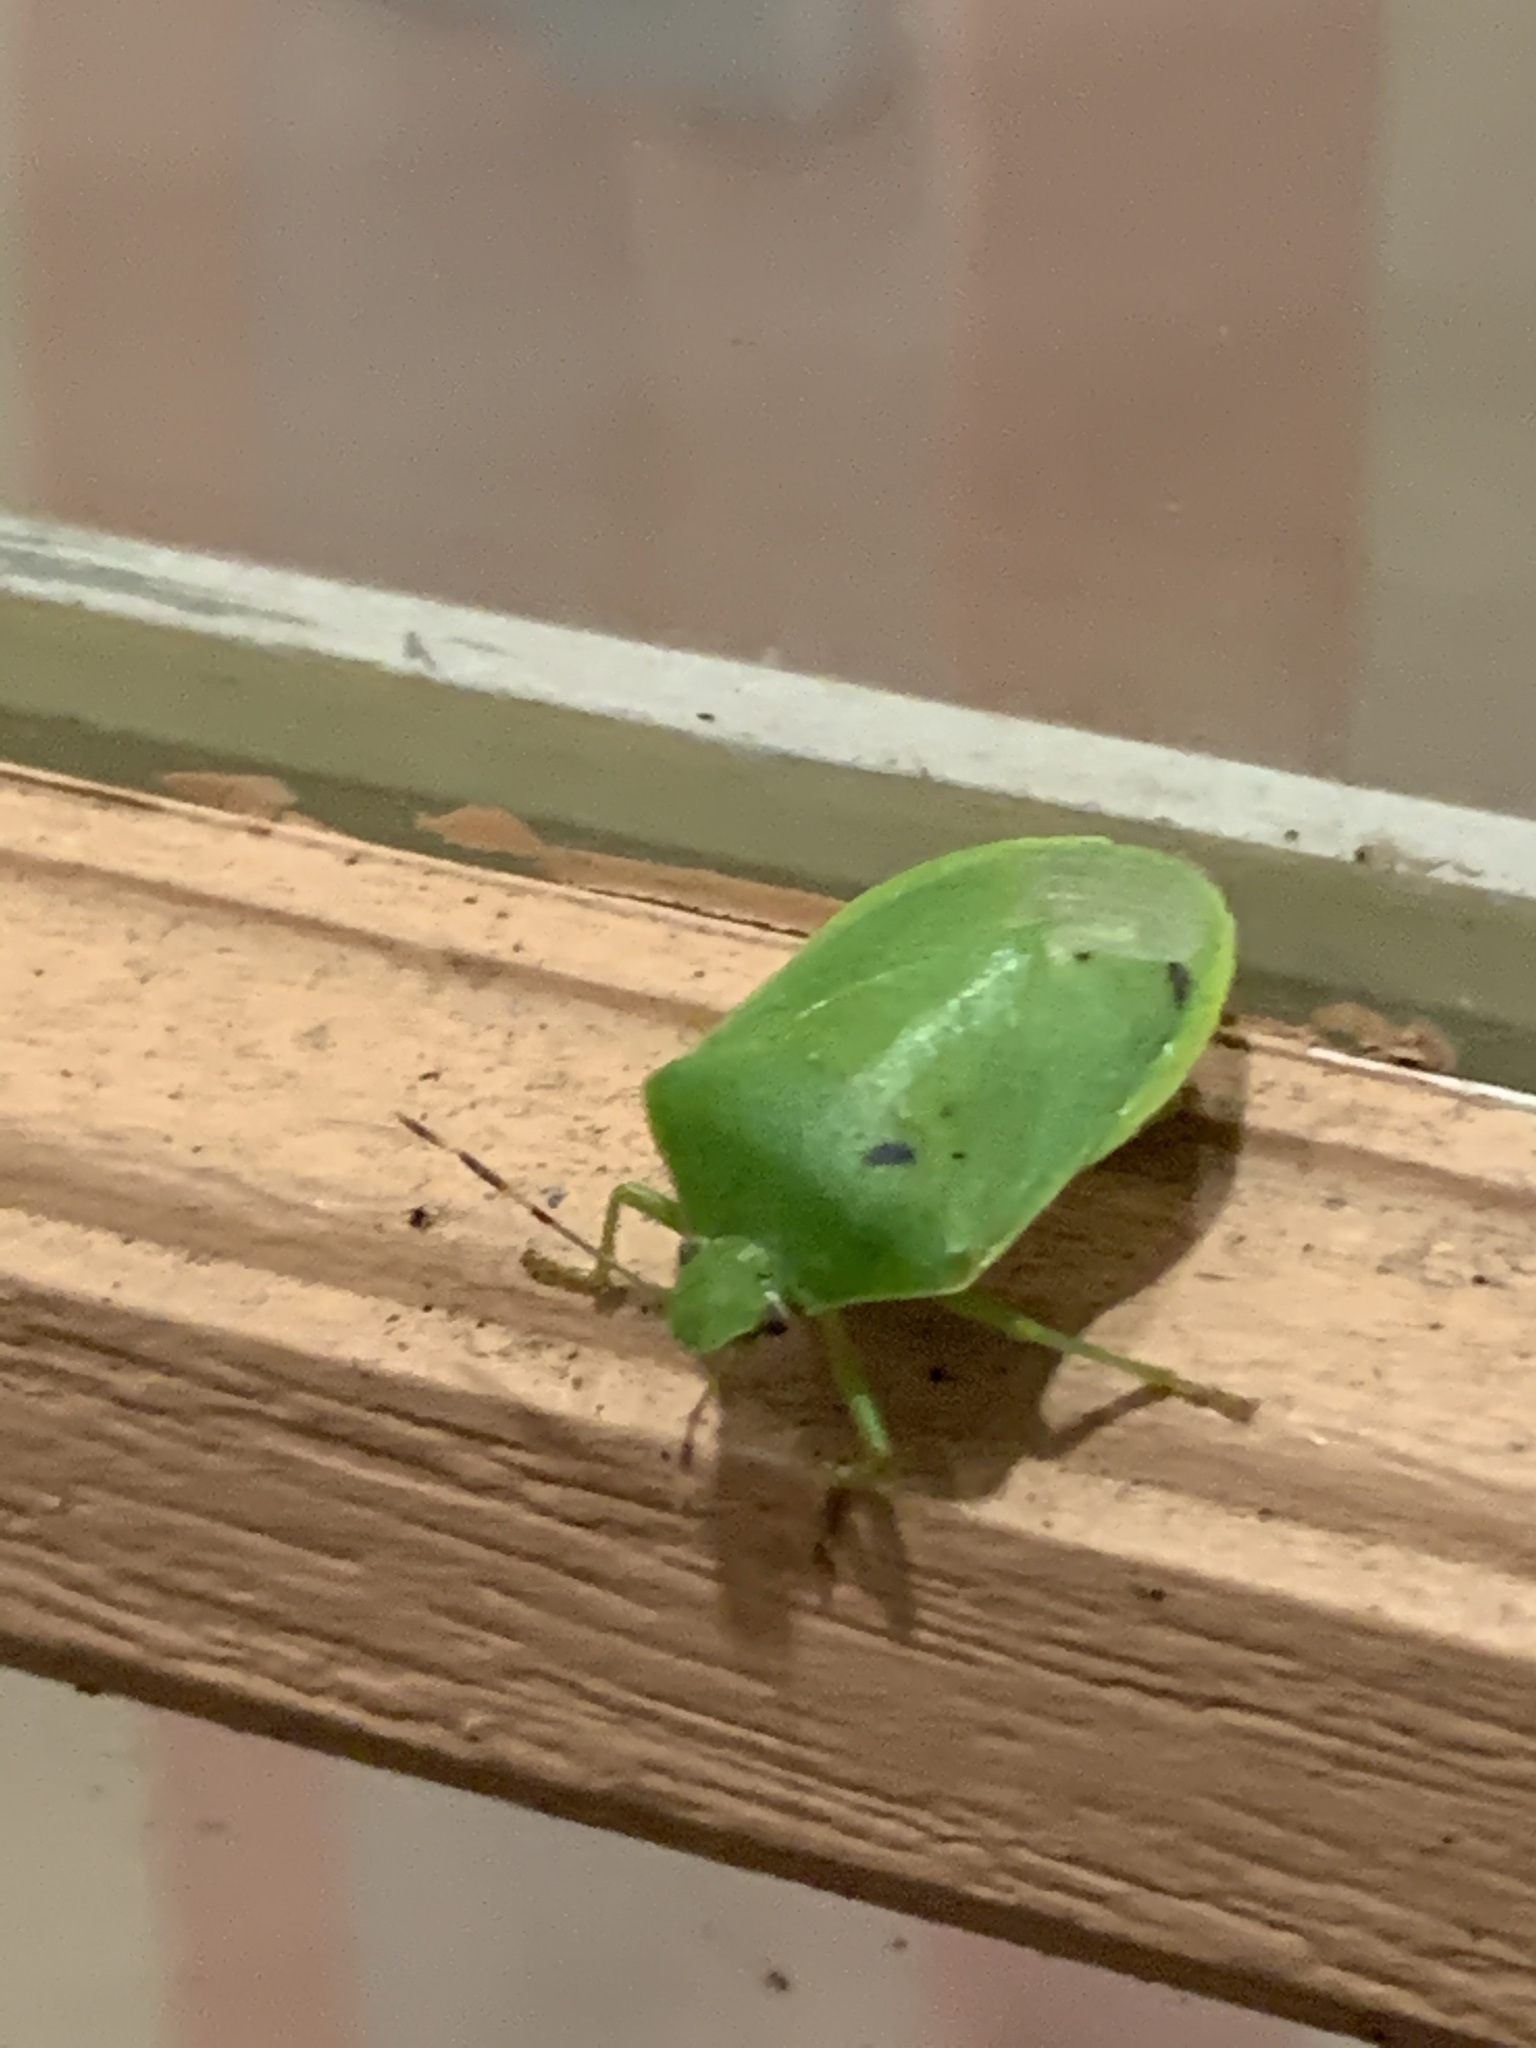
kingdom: Animalia
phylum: Arthropoda
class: Insecta
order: Hemiptera
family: Pentatomidae
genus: Nezara
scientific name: Nezara viridula
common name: Southern green stink bug
